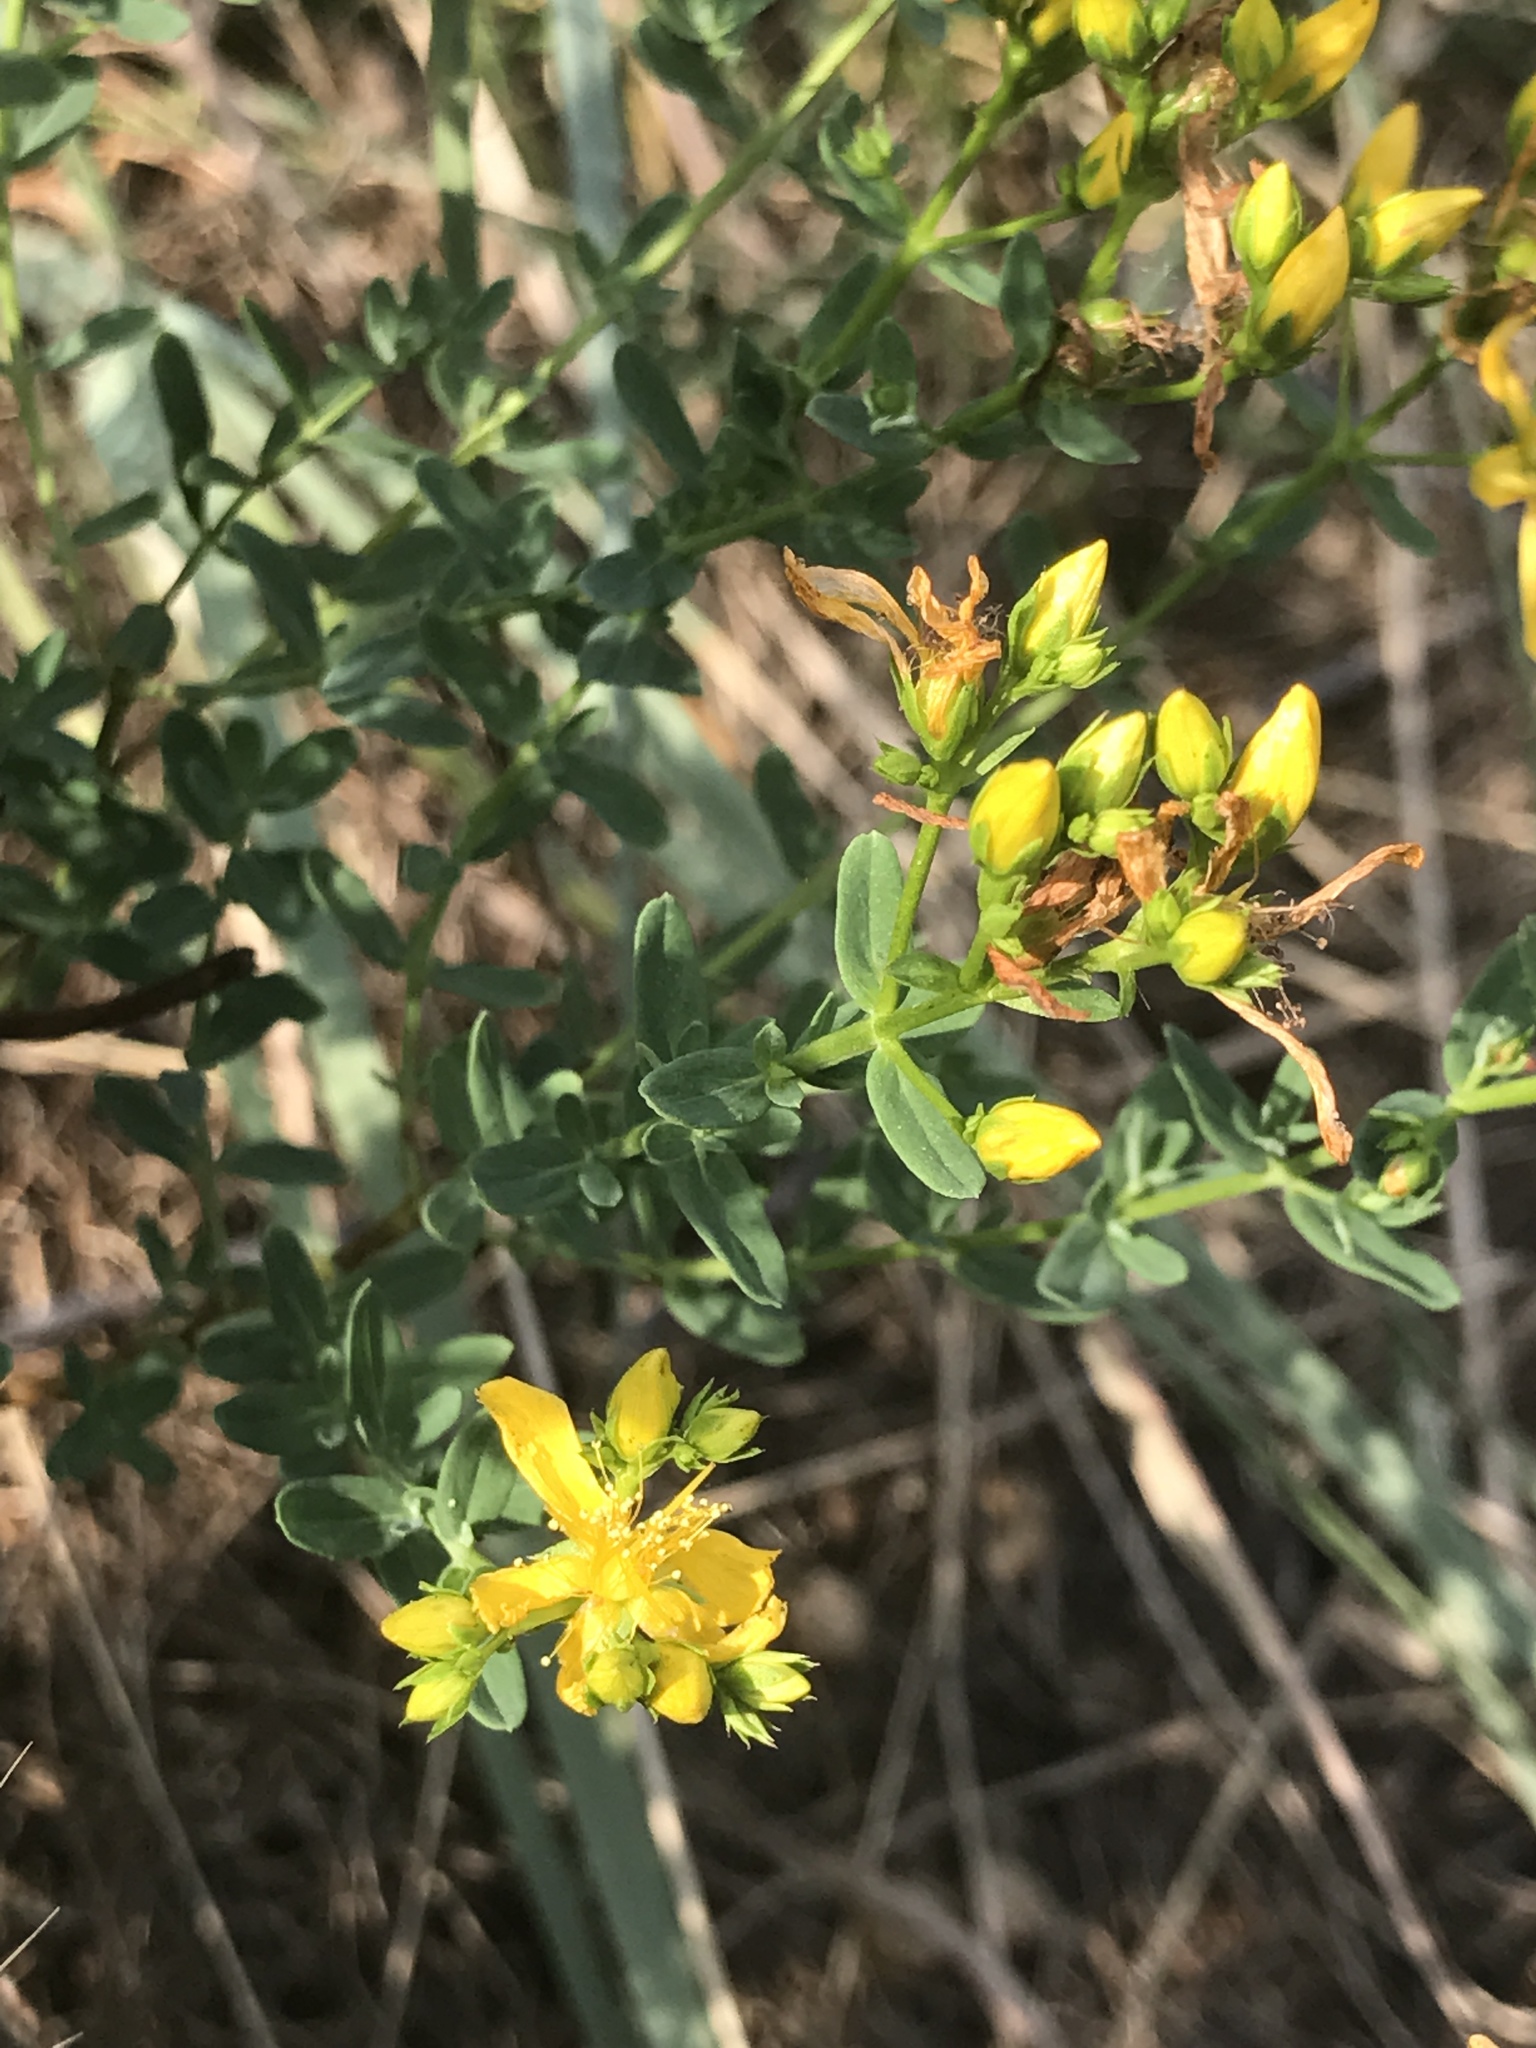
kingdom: Plantae
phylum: Tracheophyta
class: Magnoliopsida
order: Malpighiales
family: Hypericaceae
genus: Hypericum
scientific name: Hypericum perforatum
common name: Common st. johnswort
